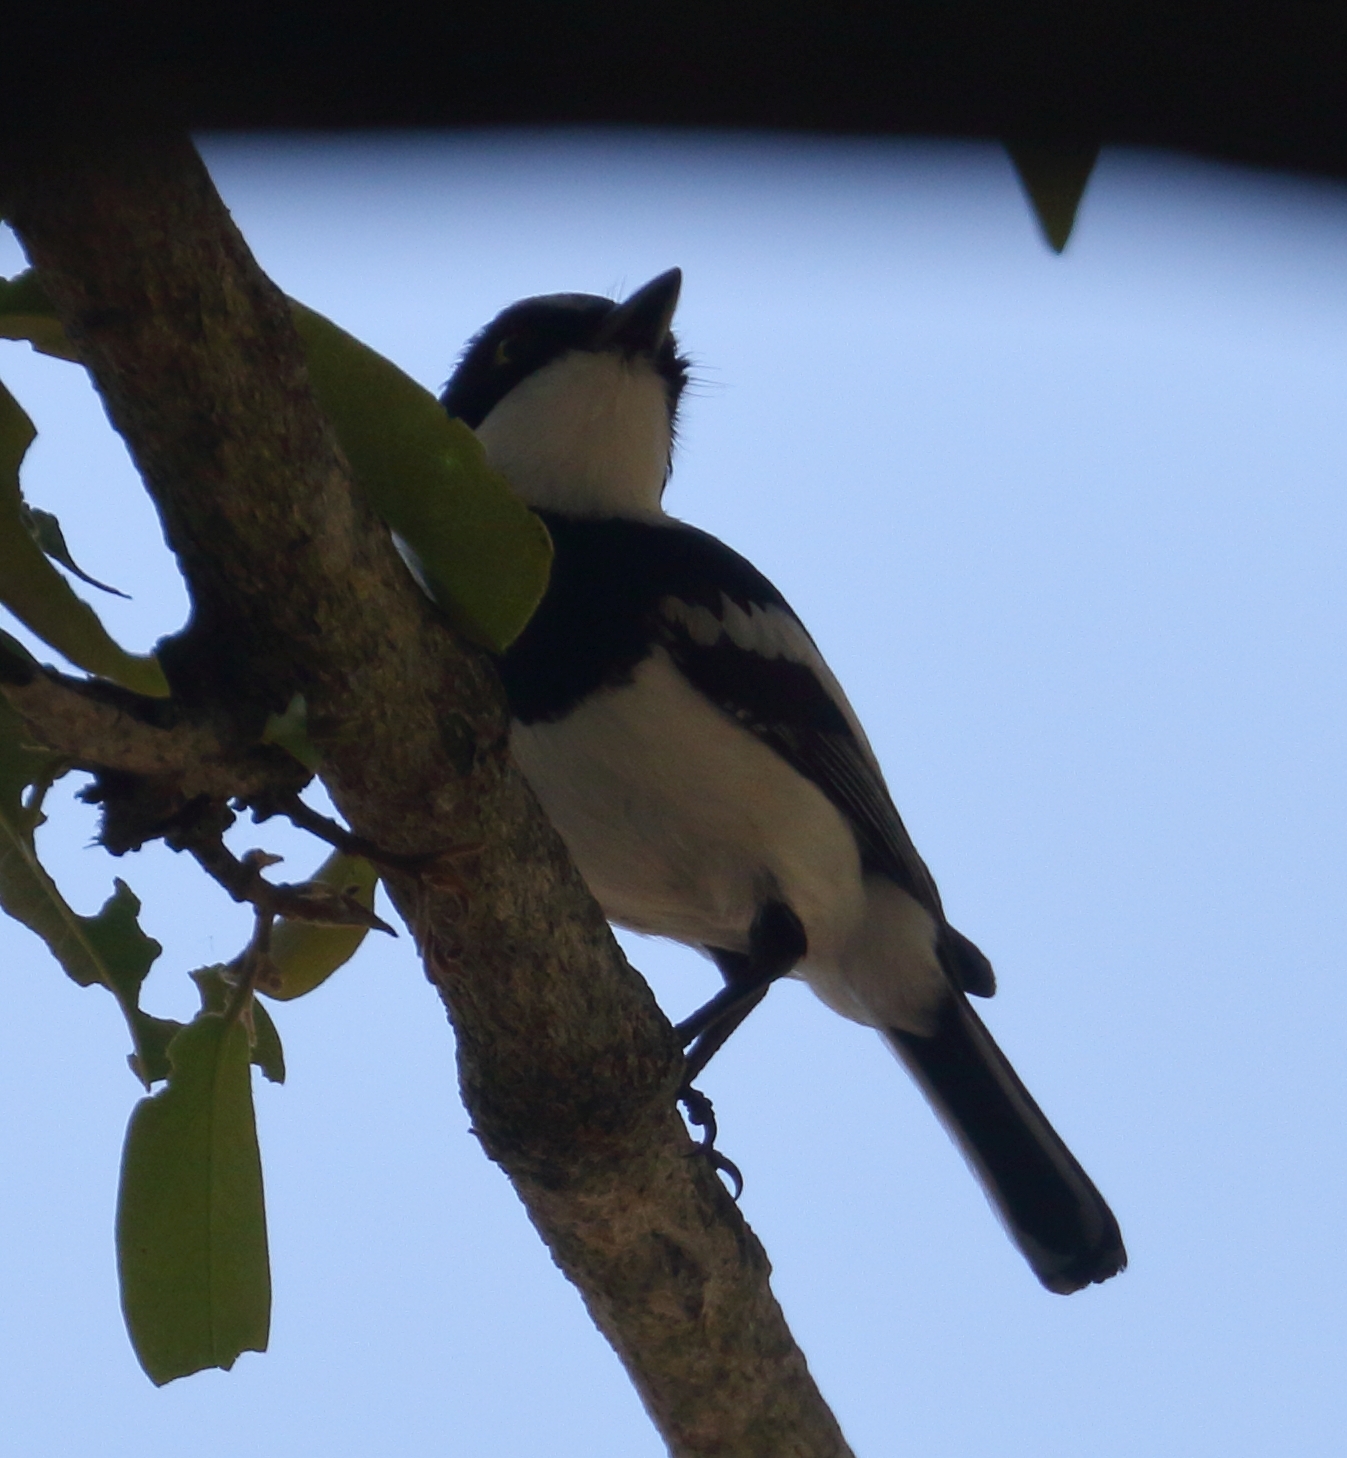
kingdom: Animalia
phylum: Chordata
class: Aves
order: Passeriformes
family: Platysteiridae
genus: Batis
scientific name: Batis molitor
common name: Chinspot batis
